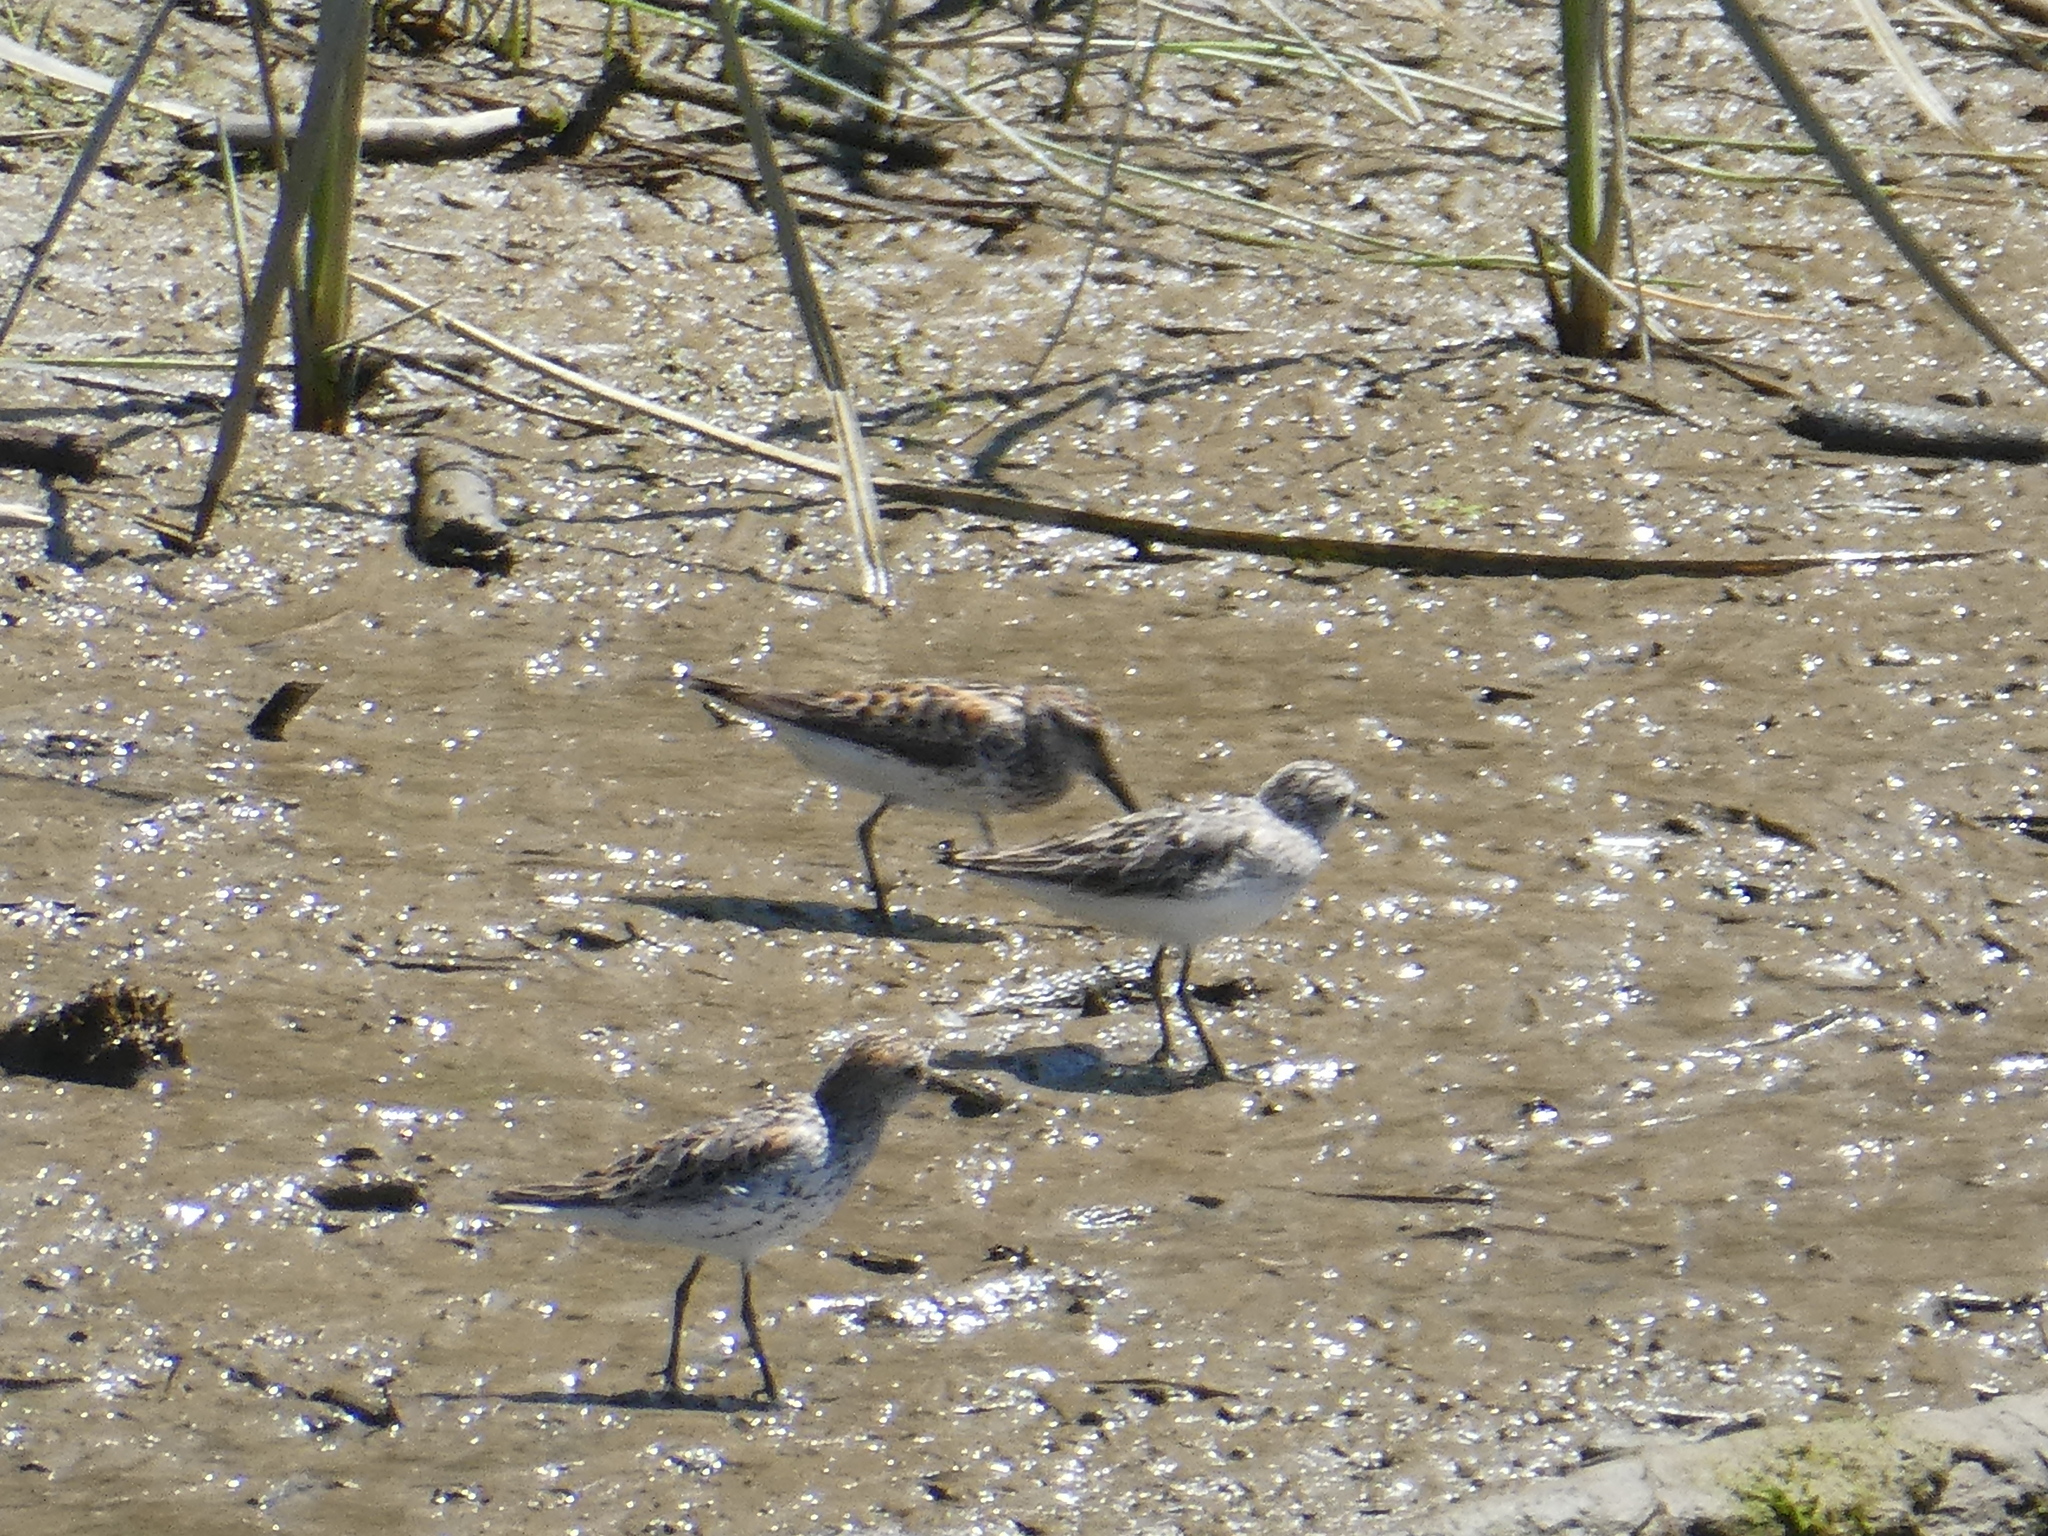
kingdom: Animalia
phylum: Chordata
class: Aves
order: Charadriiformes
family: Scolopacidae
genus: Calidris
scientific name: Calidris pusilla
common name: Semipalmated sandpiper
